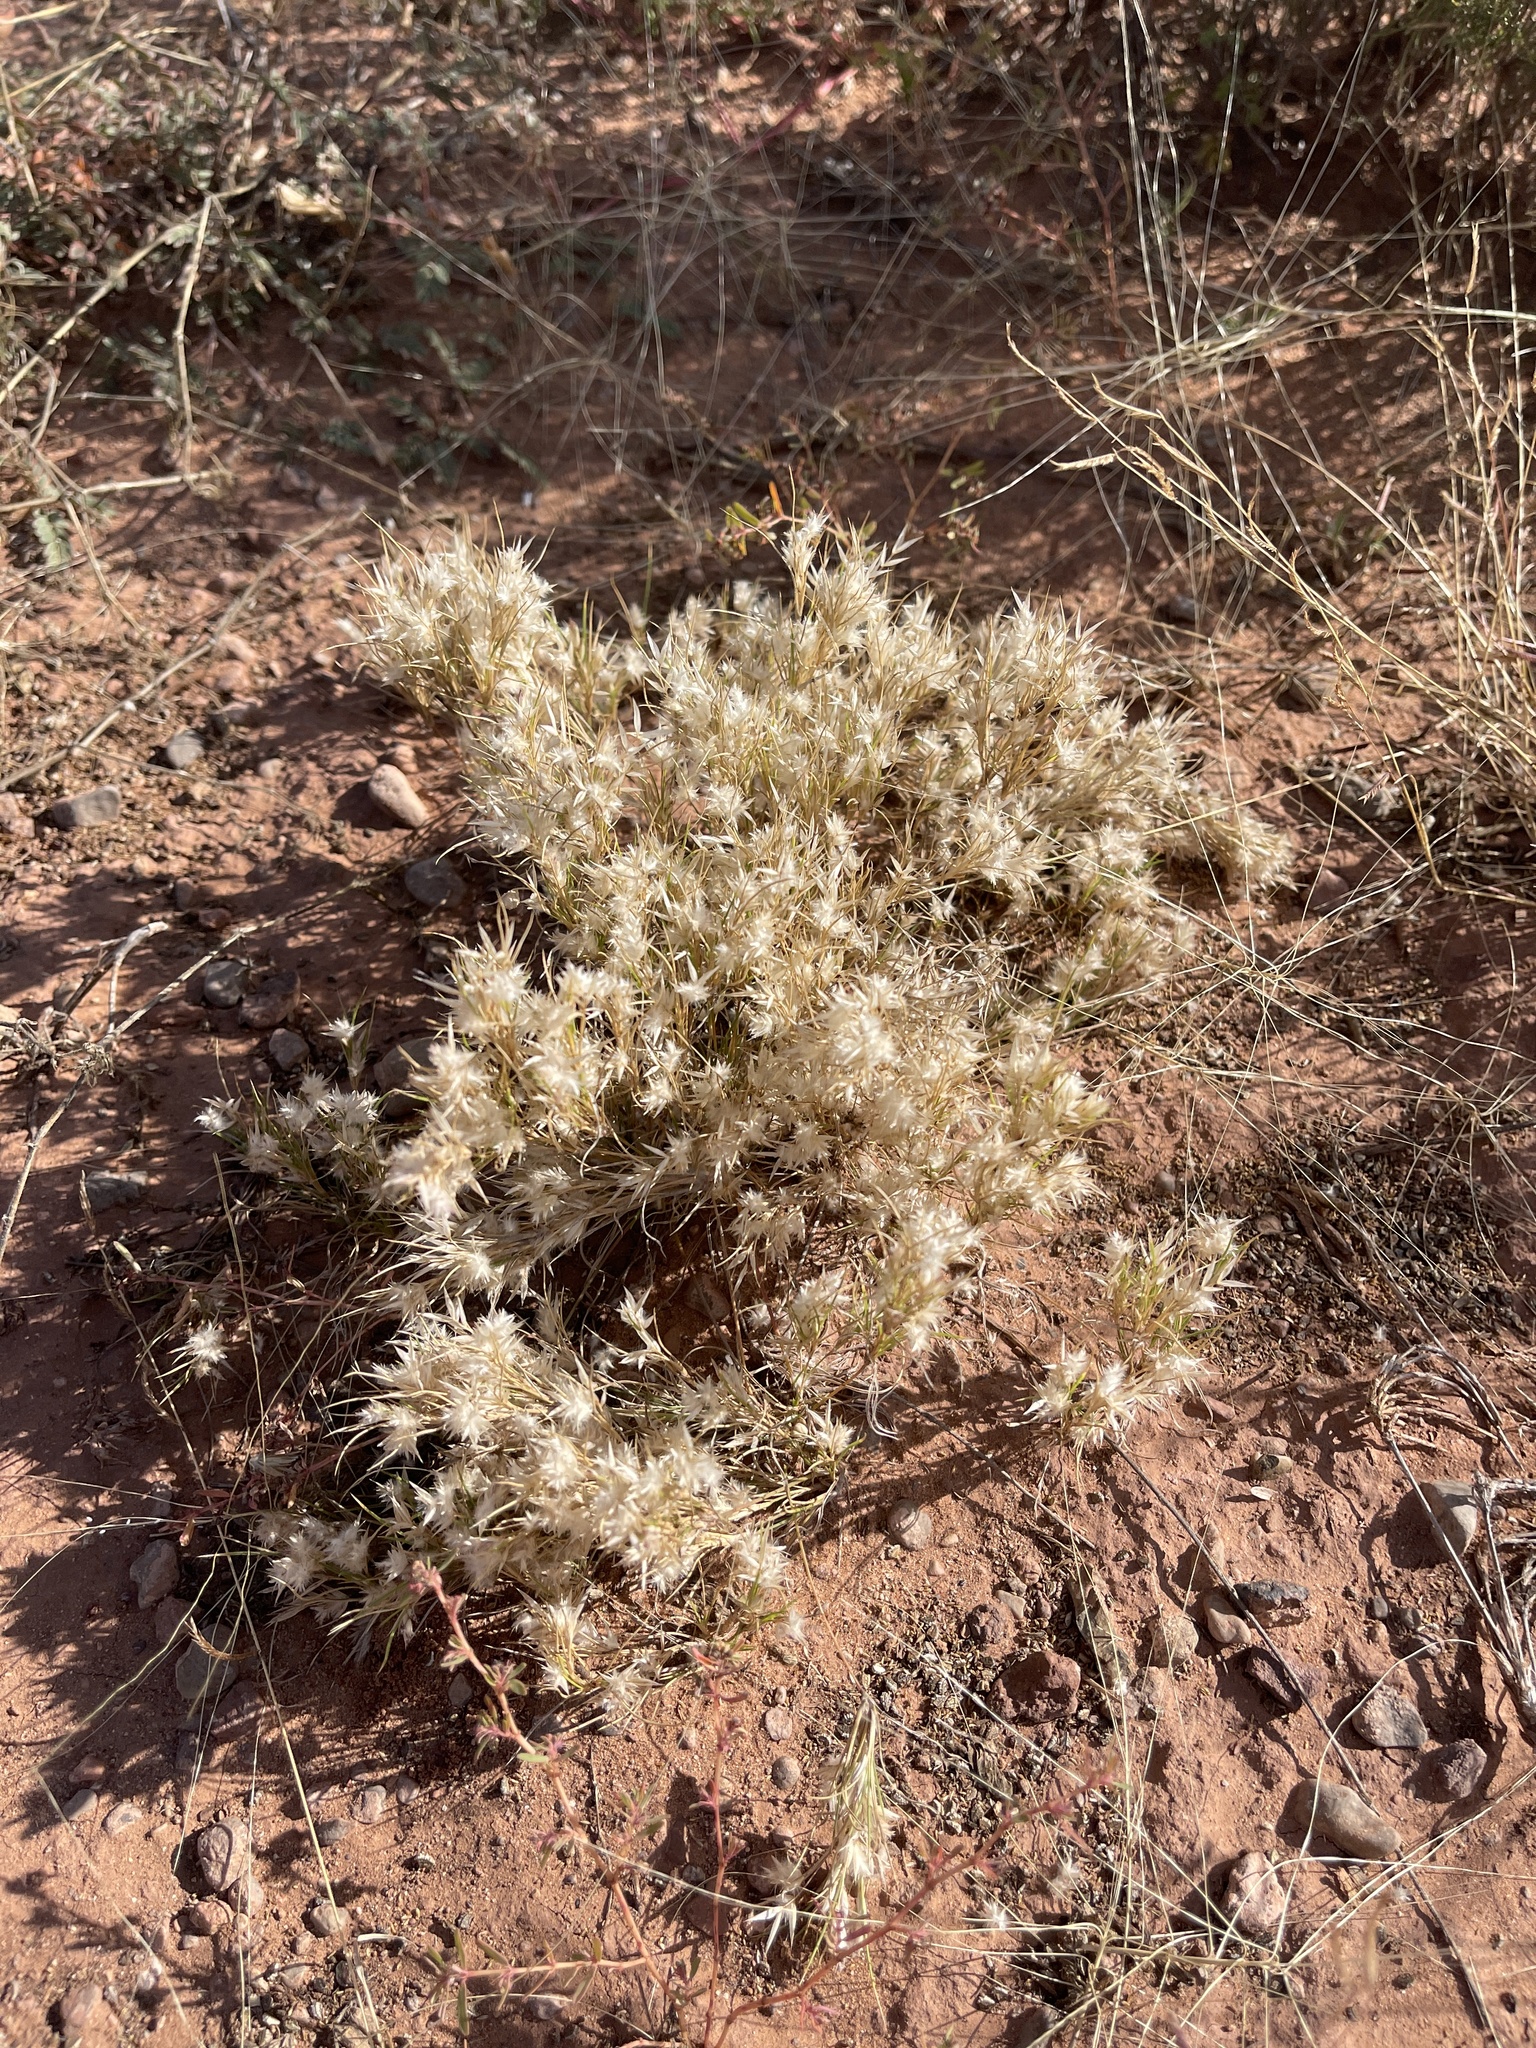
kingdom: Plantae
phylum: Tracheophyta
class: Liliopsida
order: Poales
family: Poaceae
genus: Dasyochloa
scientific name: Dasyochloa pulchella
